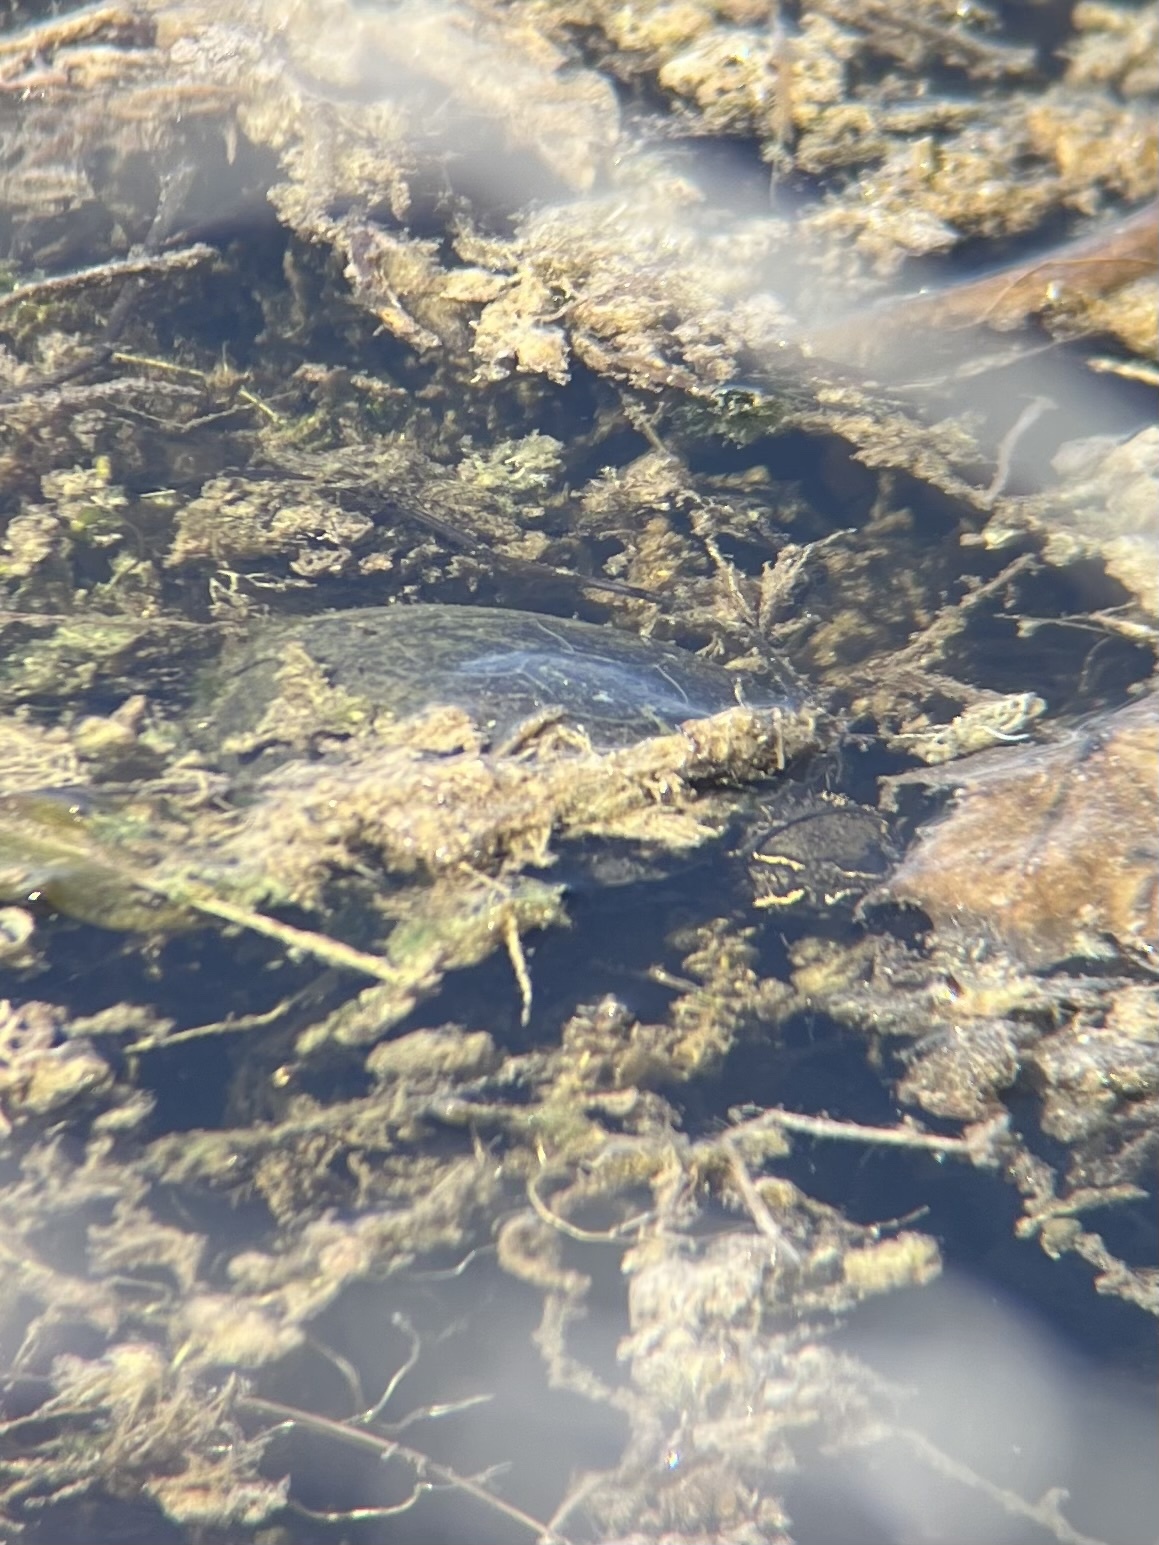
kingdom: Animalia
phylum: Chordata
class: Testudines
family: Kinosternidae
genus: Sternotherus
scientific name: Sternotherus odoratus
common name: Common musk turtle
